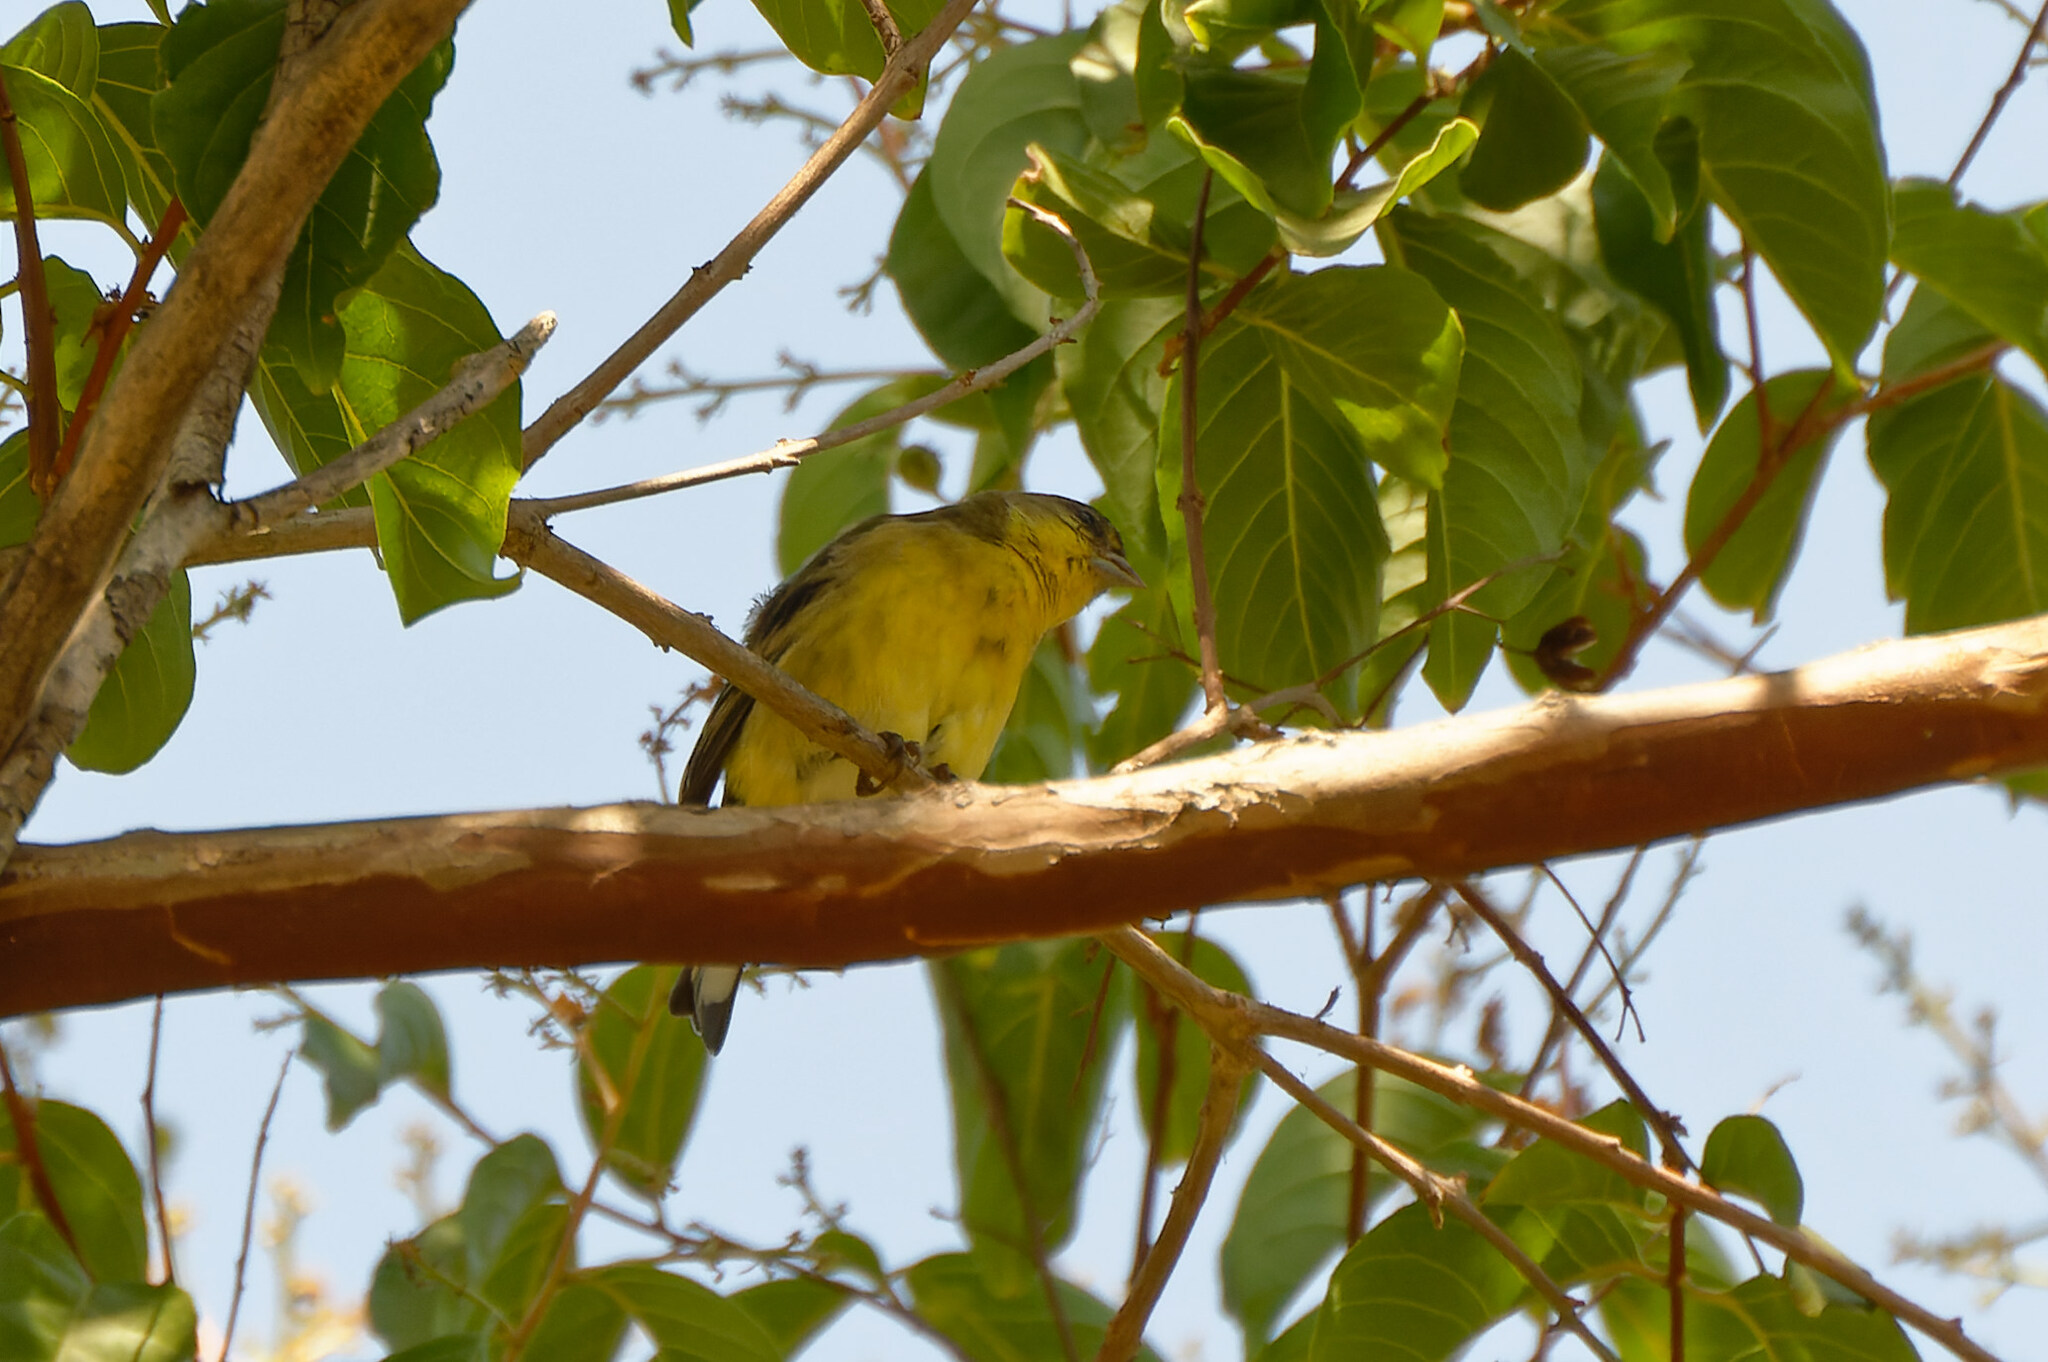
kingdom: Animalia
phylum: Chordata
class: Aves
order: Passeriformes
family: Fringillidae
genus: Spinus
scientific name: Spinus psaltria
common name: Lesser goldfinch
